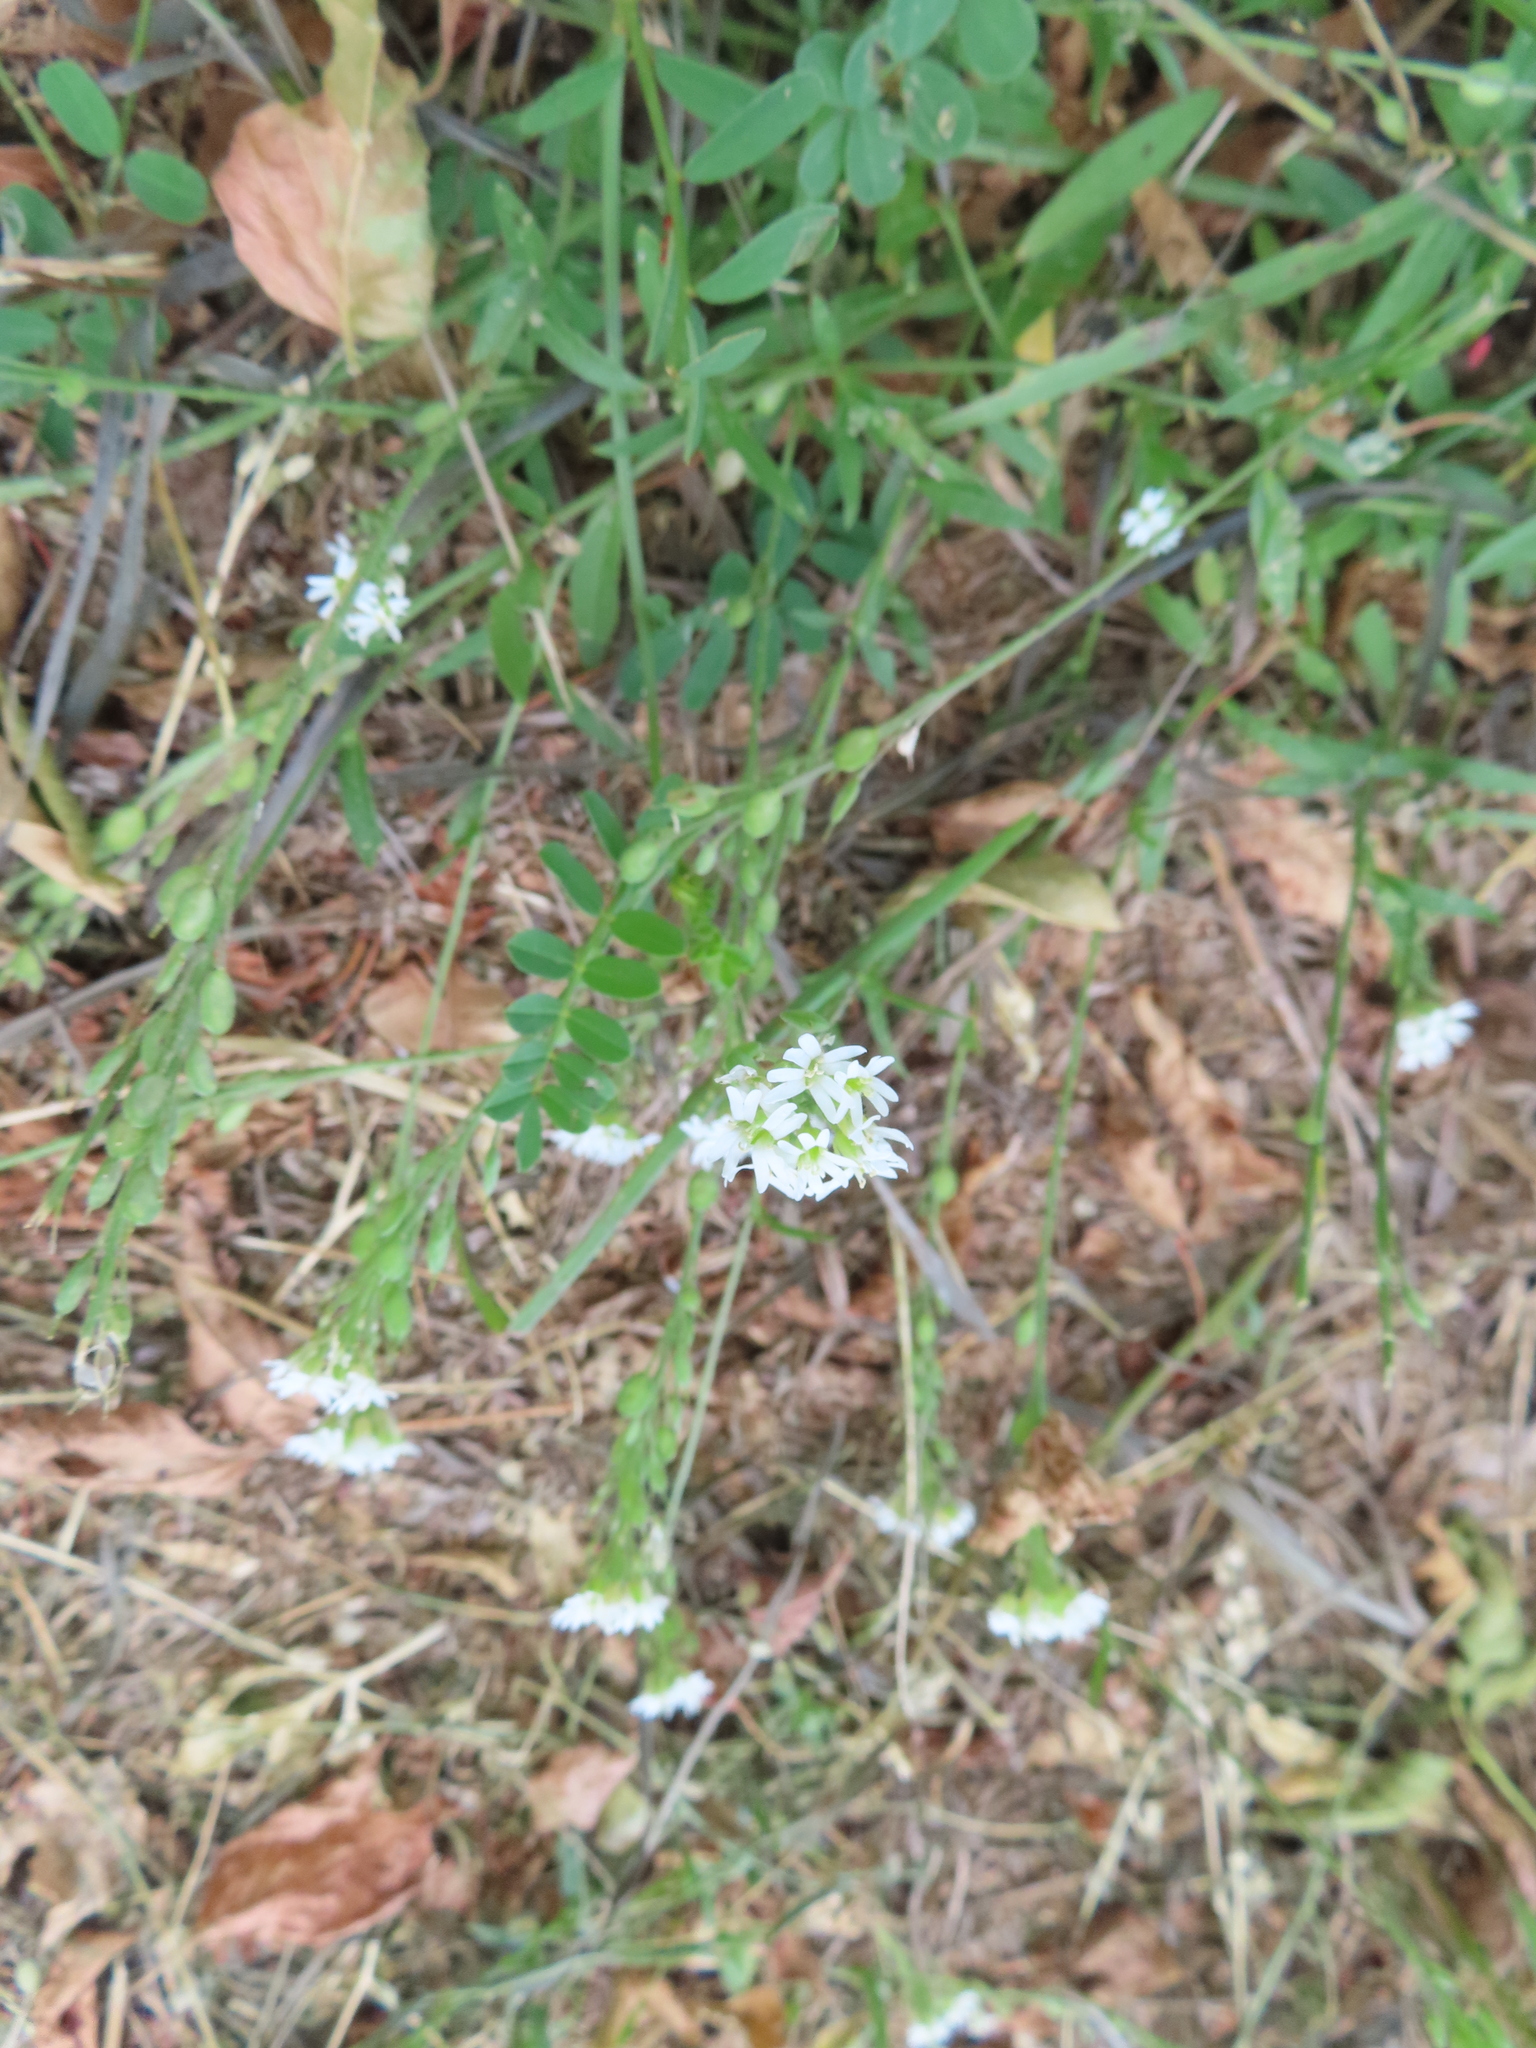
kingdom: Plantae
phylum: Tracheophyta
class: Magnoliopsida
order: Brassicales
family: Brassicaceae
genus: Berteroa
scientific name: Berteroa incana
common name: Hoary alison
